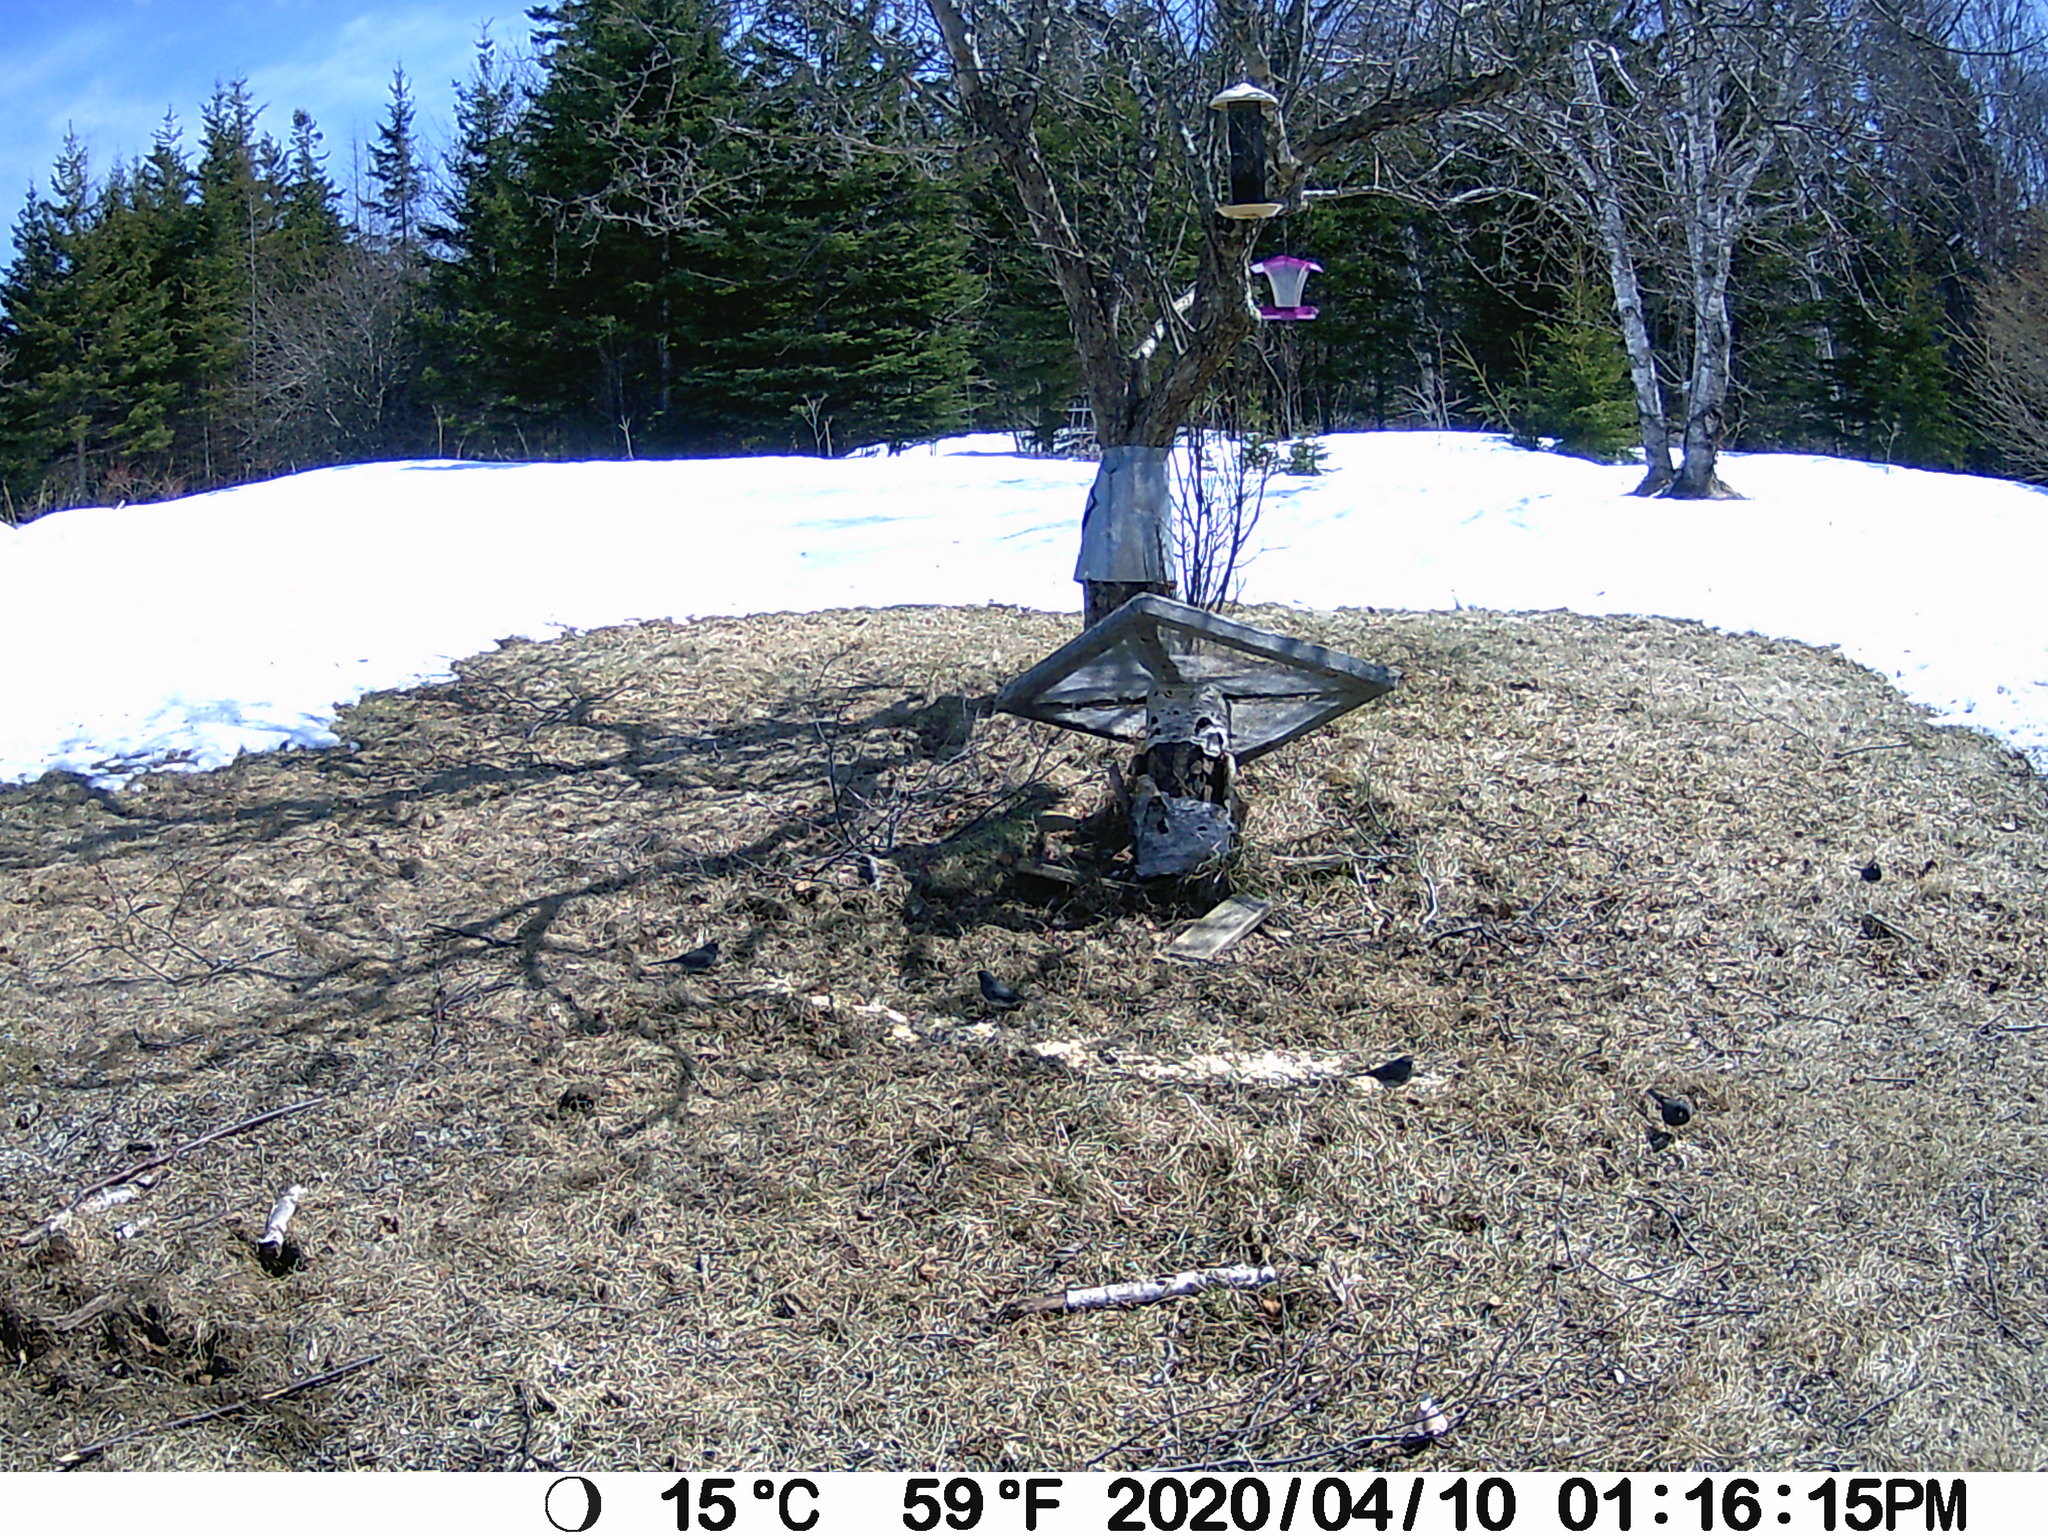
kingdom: Animalia
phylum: Chordata
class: Aves
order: Passeriformes
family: Passerellidae
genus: Junco
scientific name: Junco hyemalis
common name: Dark-eyed junco
